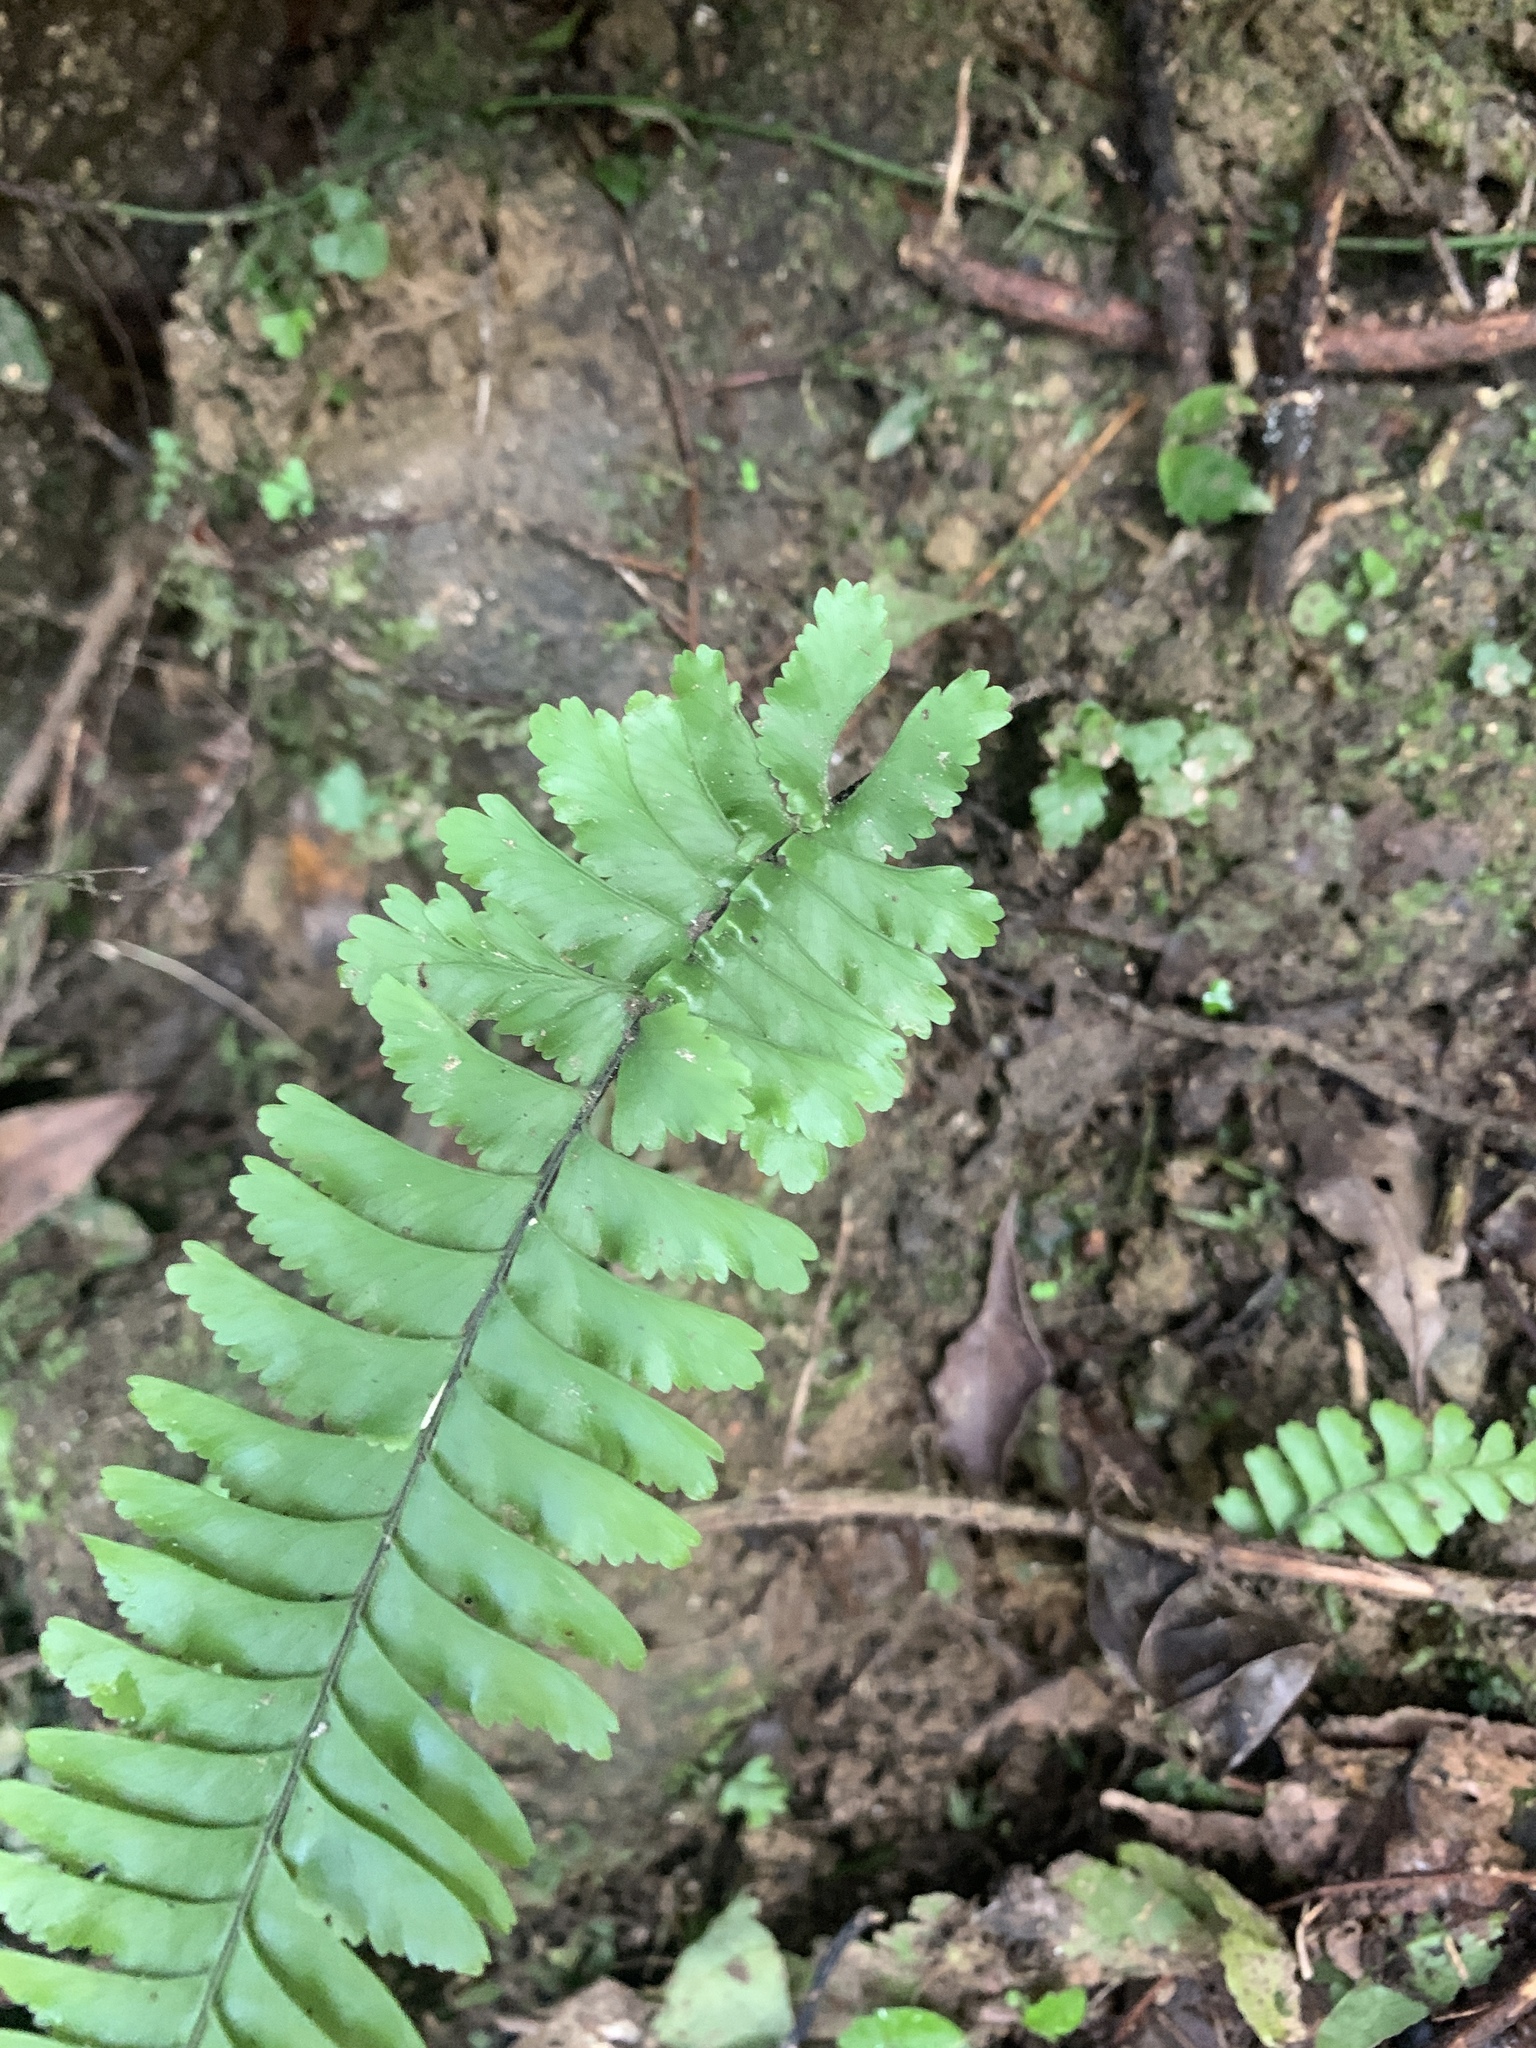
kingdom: Plantae
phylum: Tracheophyta
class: Polypodiopsida
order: Polypodiales
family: Aspleniaceae
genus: Hymenasplenium
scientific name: Hymenasplenium cheilosorum
